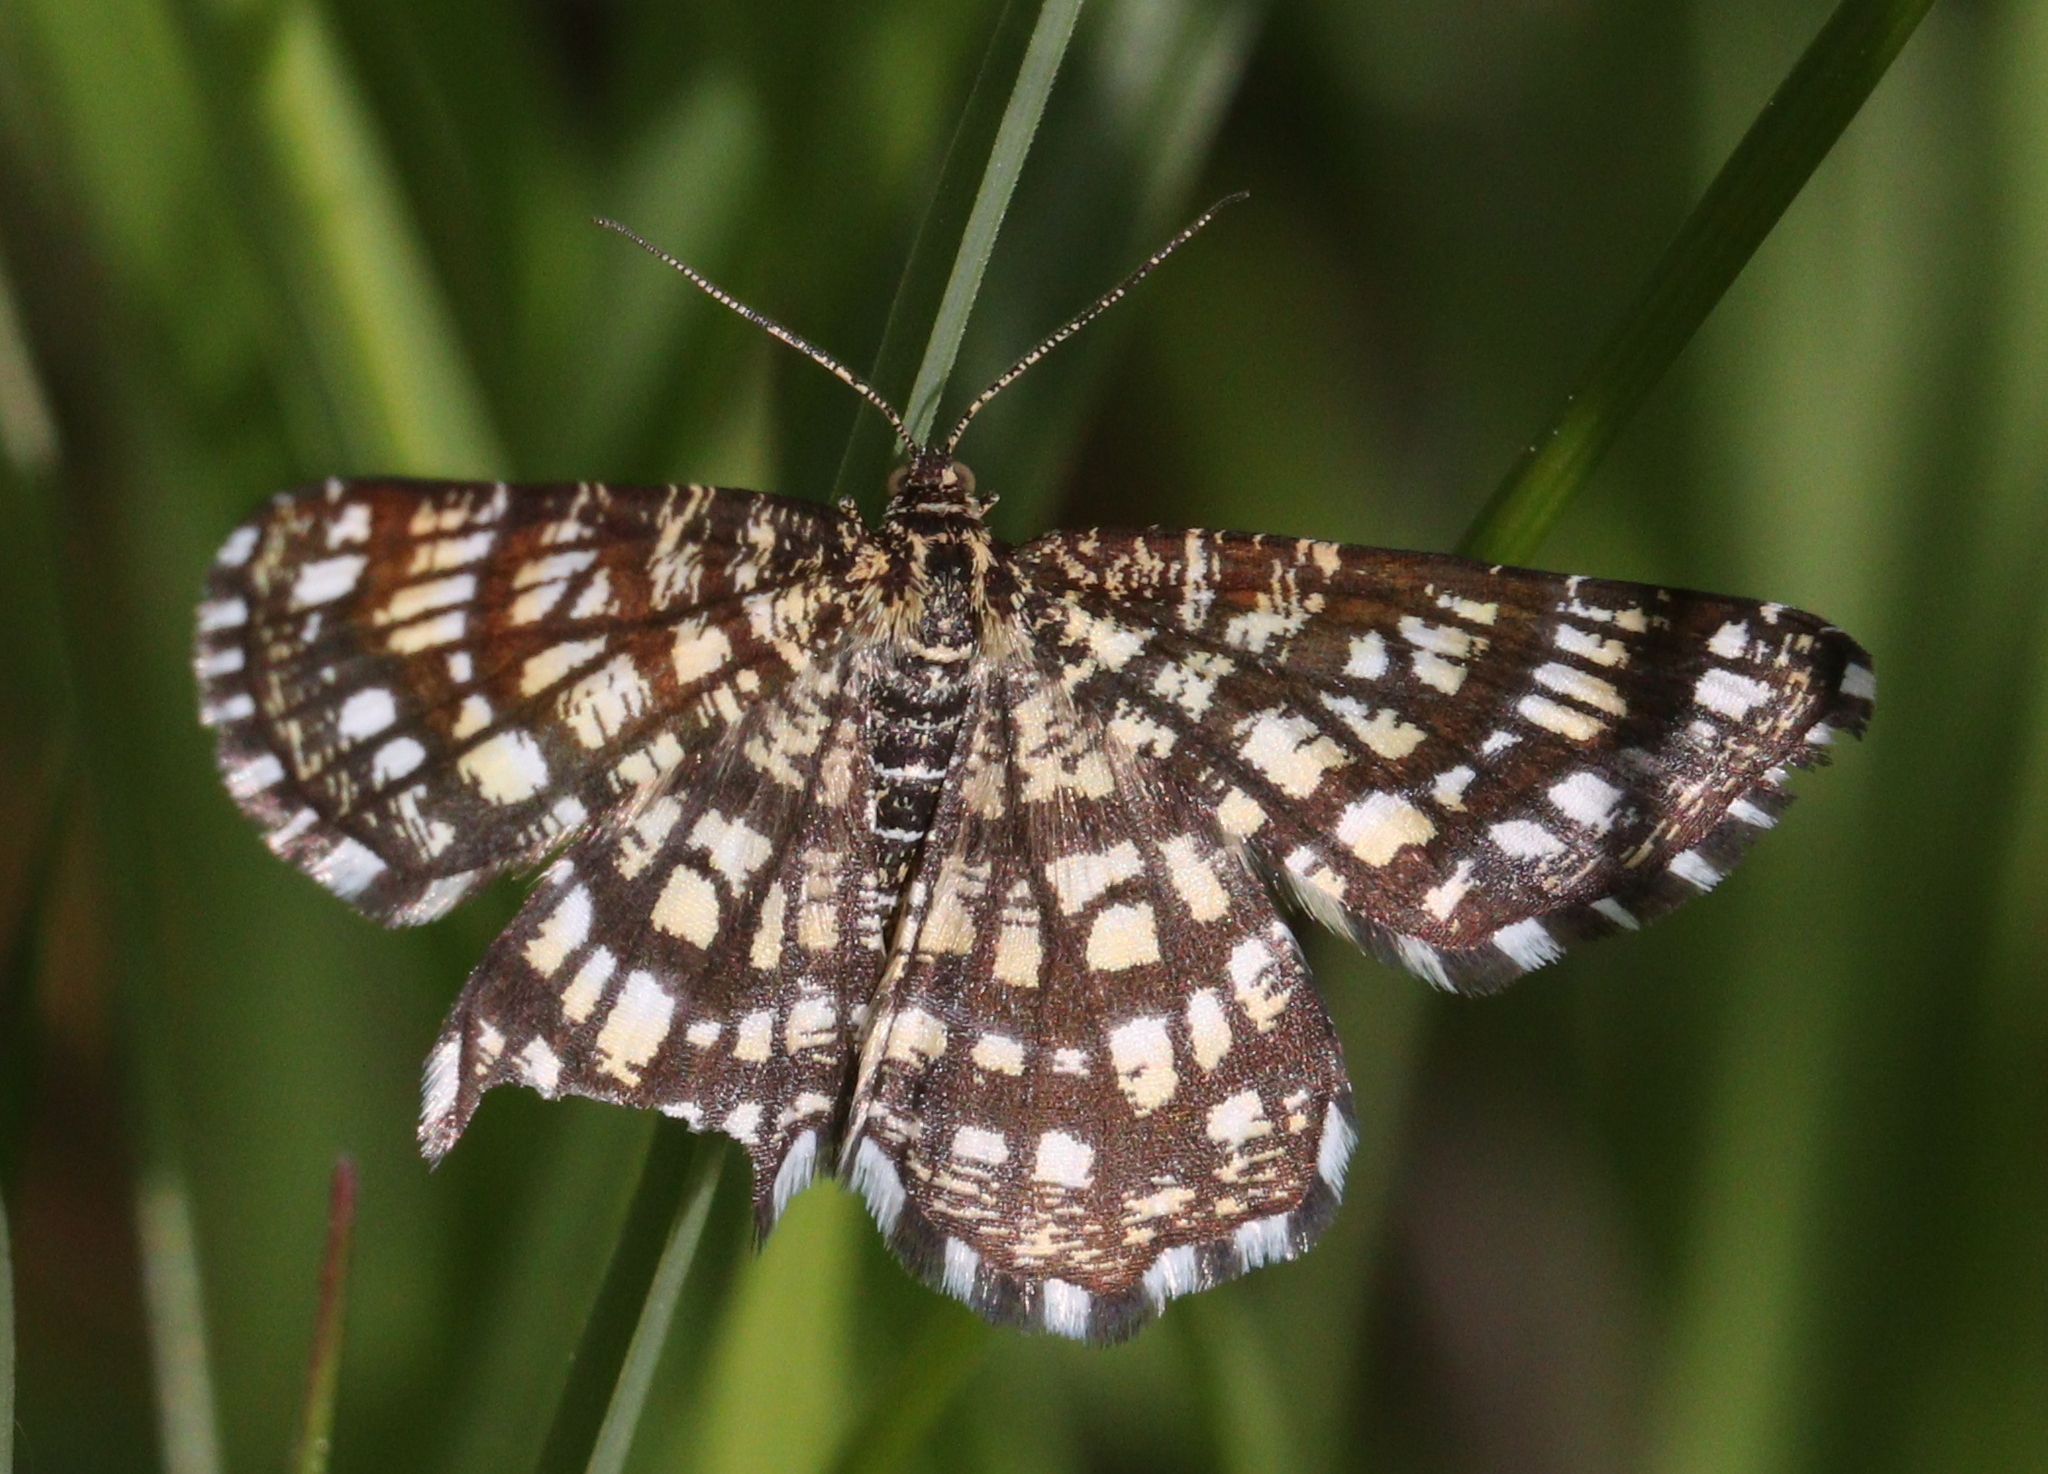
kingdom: Animalia
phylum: Arthropoda
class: Insecta
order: Lepidoptera
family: Geometridae
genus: Chiasmia
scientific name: Chiasmia clathrata
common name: Latticed heath
